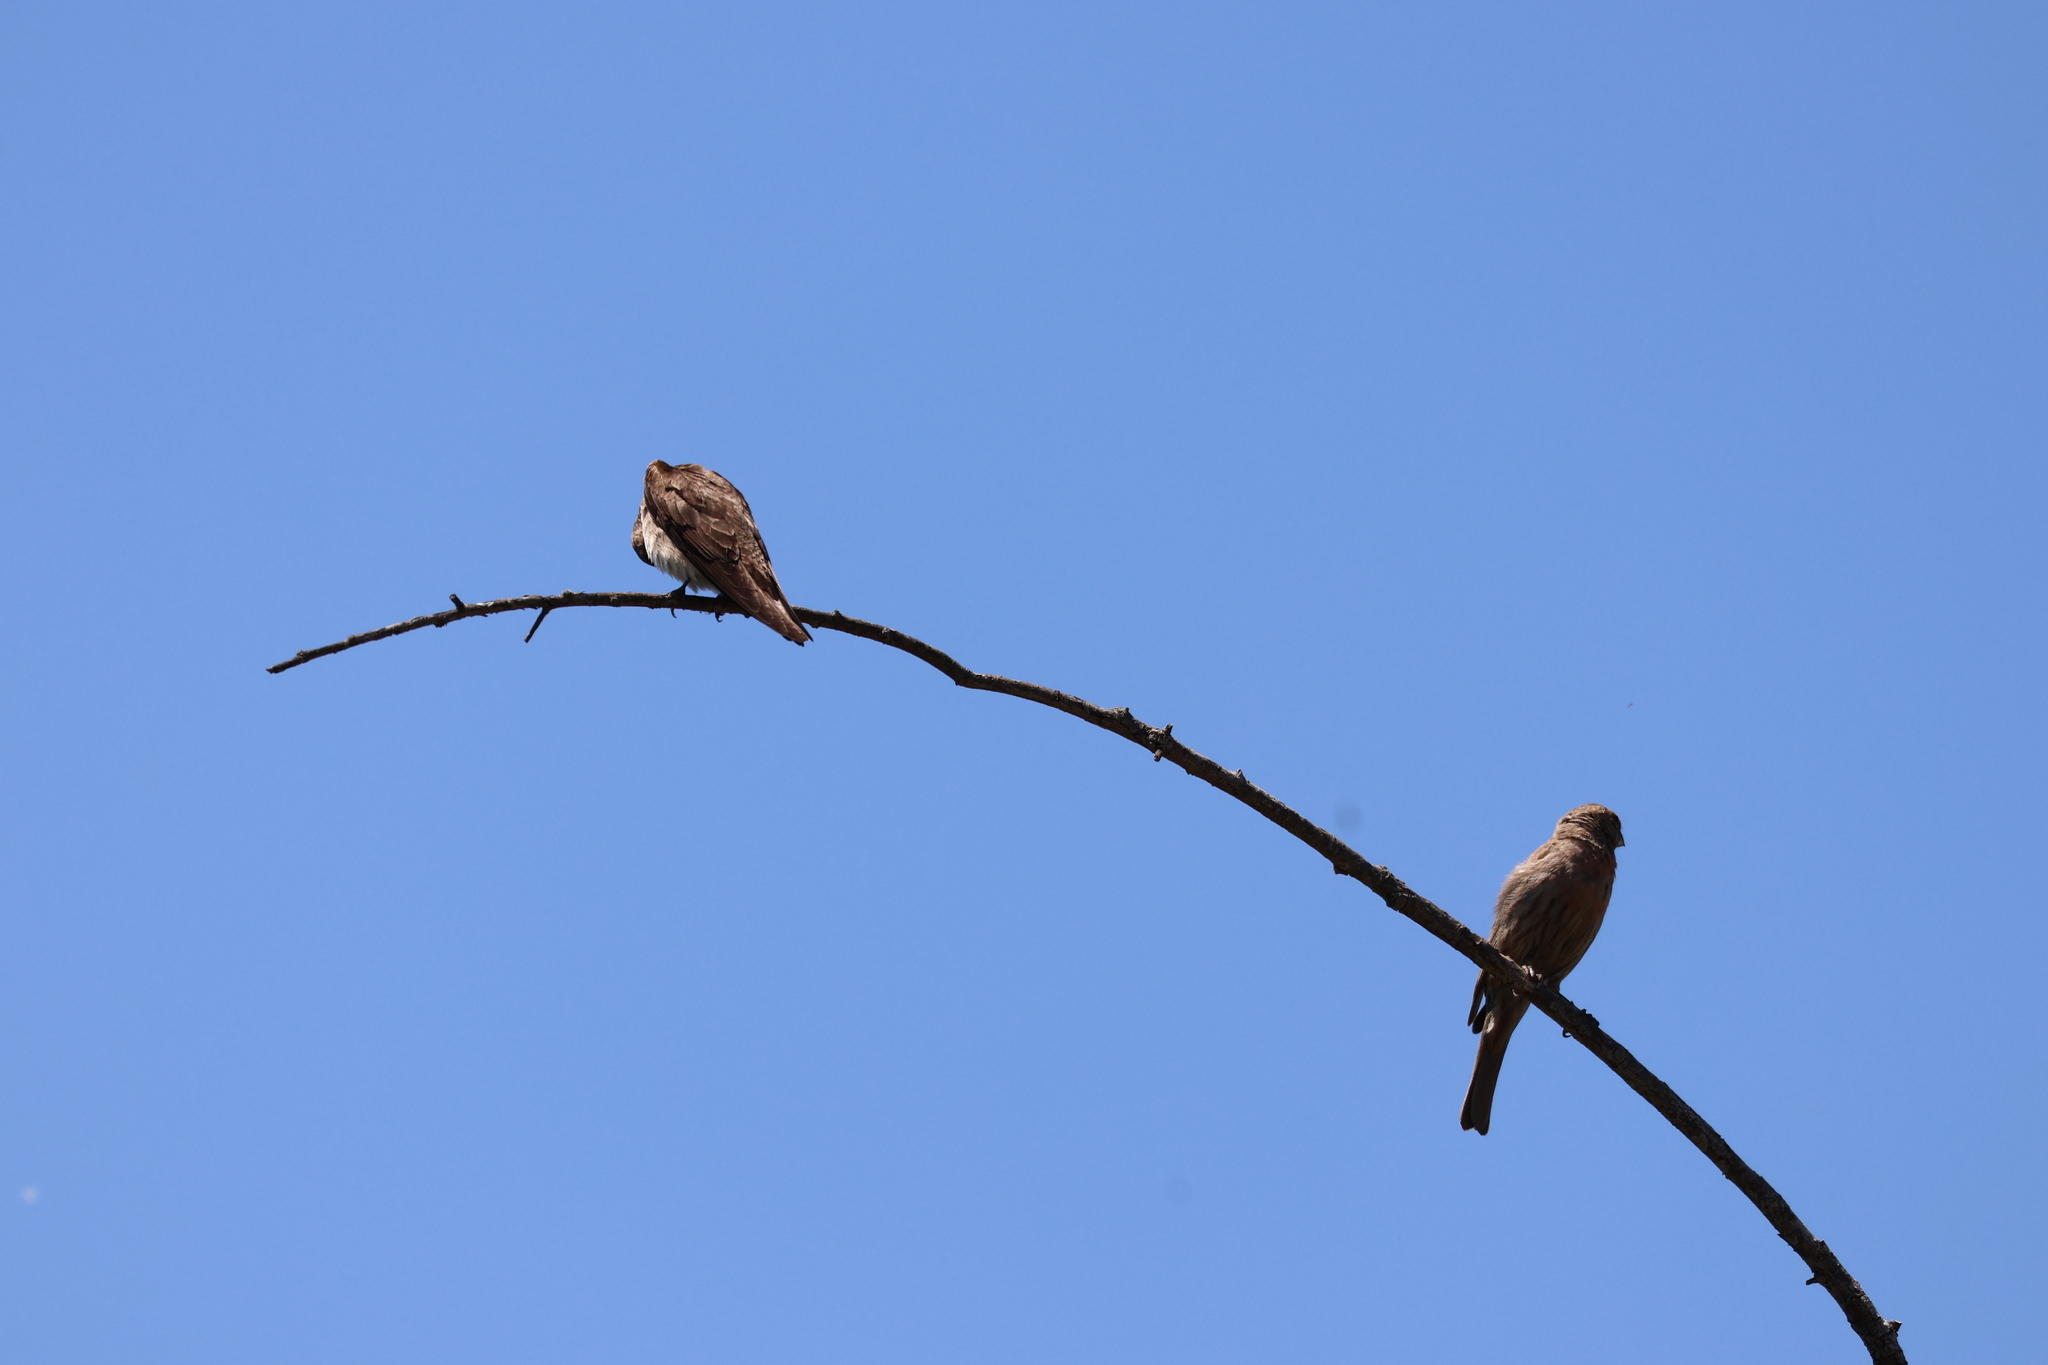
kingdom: Animalia
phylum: Chordata
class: Aves
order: Passeriformes
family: Hirundinidae
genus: Stelgidopteryx
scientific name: Stelgidopteryx serripennis
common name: Northern rough-winged swallow
